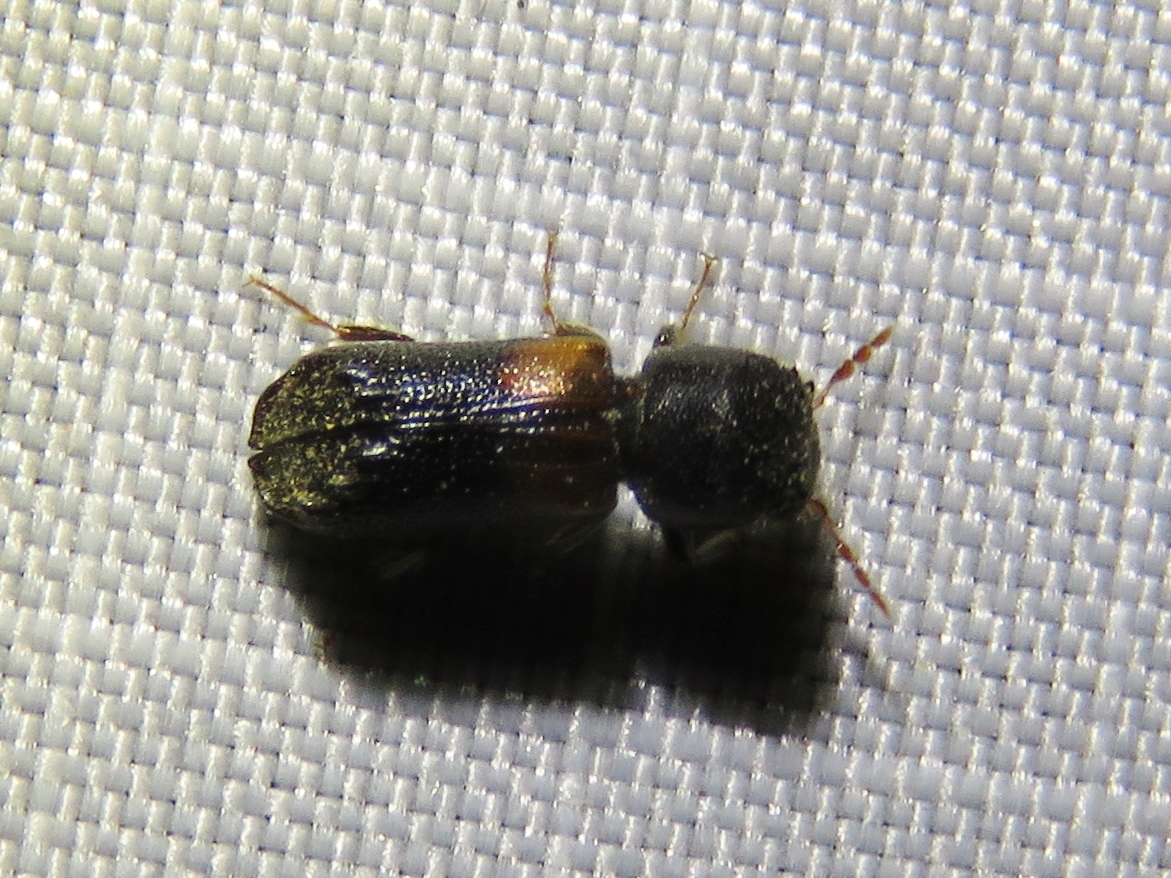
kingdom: Animalia
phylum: Arthropoda
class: Insecta
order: Coleoptera
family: Bostrichidae
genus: Xylobiops
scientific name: Xylobiops basilaris
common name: Red-shouldered bostrichid
